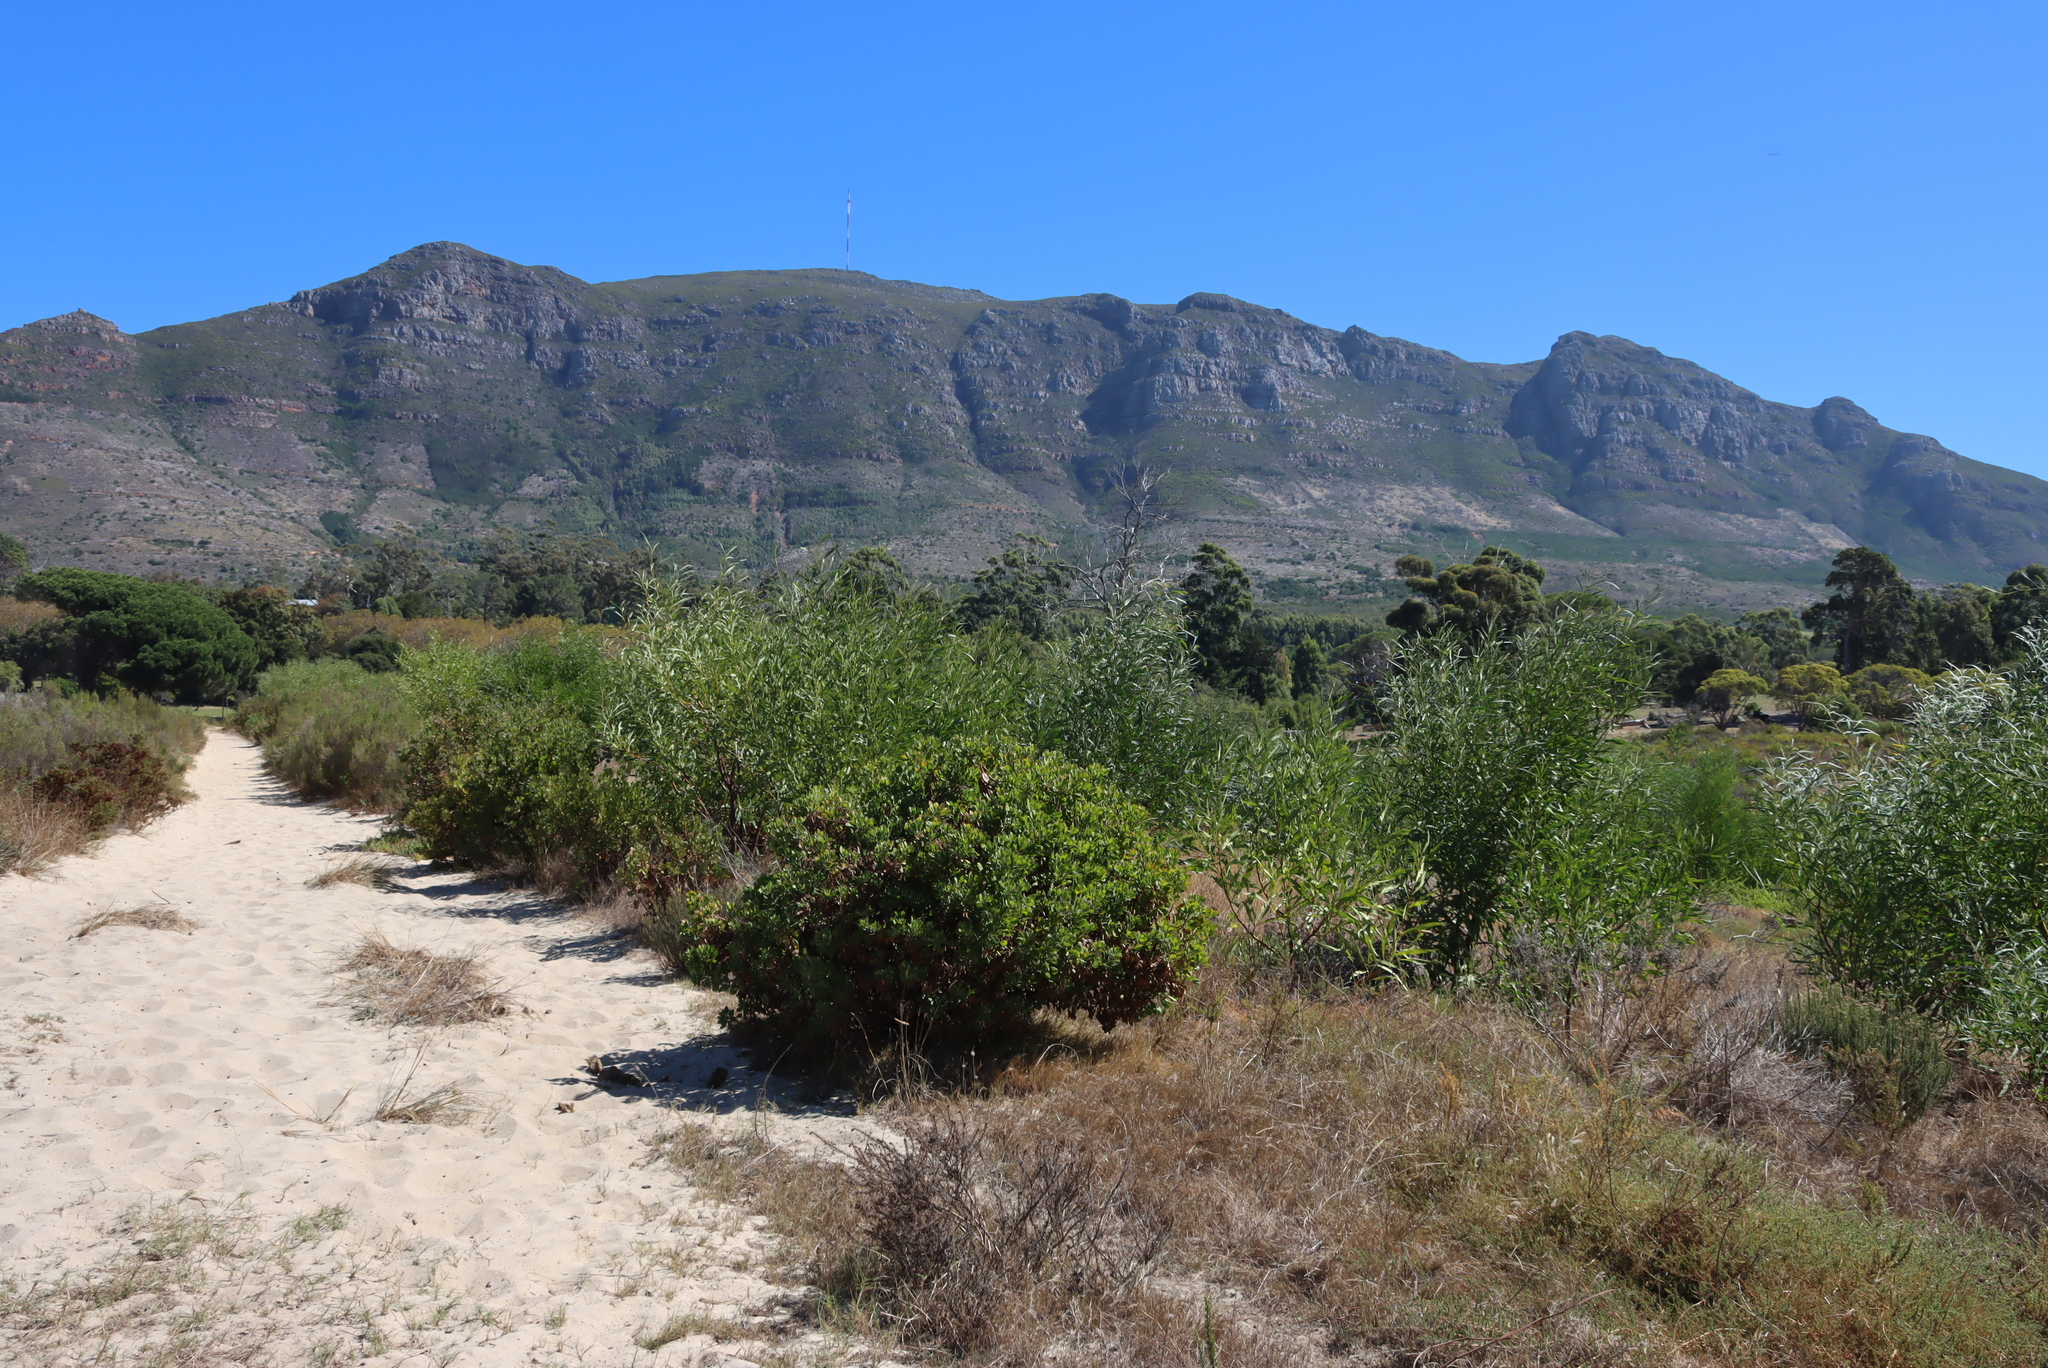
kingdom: Plantae
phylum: Tracheophyta
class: Magnoliopsida
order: Asterales
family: Asteraceae
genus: Osteospermum
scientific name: Osteospermum moniliferum
